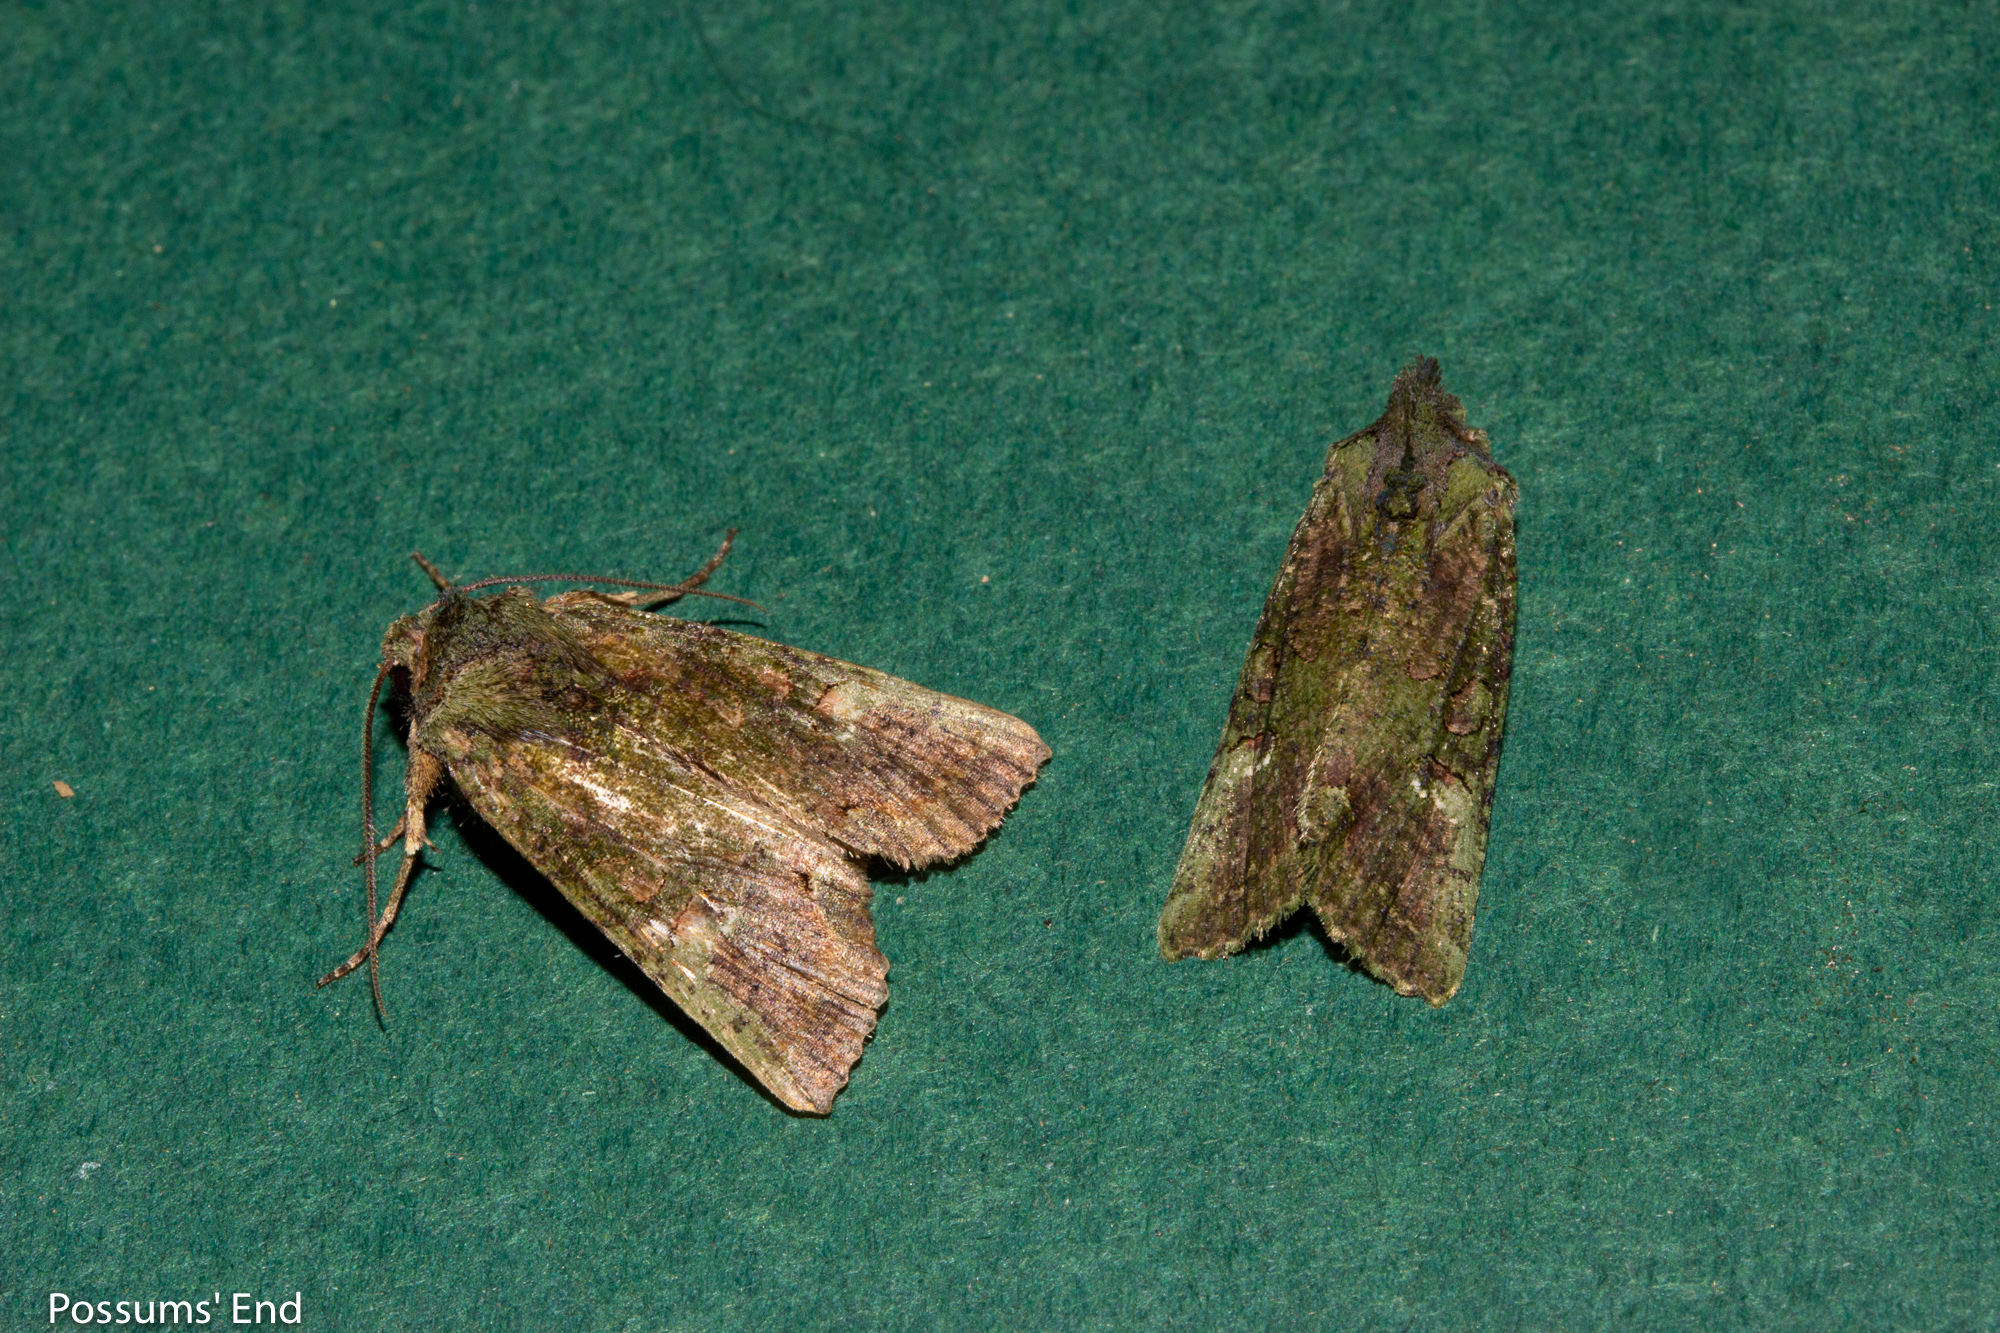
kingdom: Animalia
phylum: Arthropoda
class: Insecta
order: Lepidoptera
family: Noctuidae
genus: Meterana
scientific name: Meterana levis
